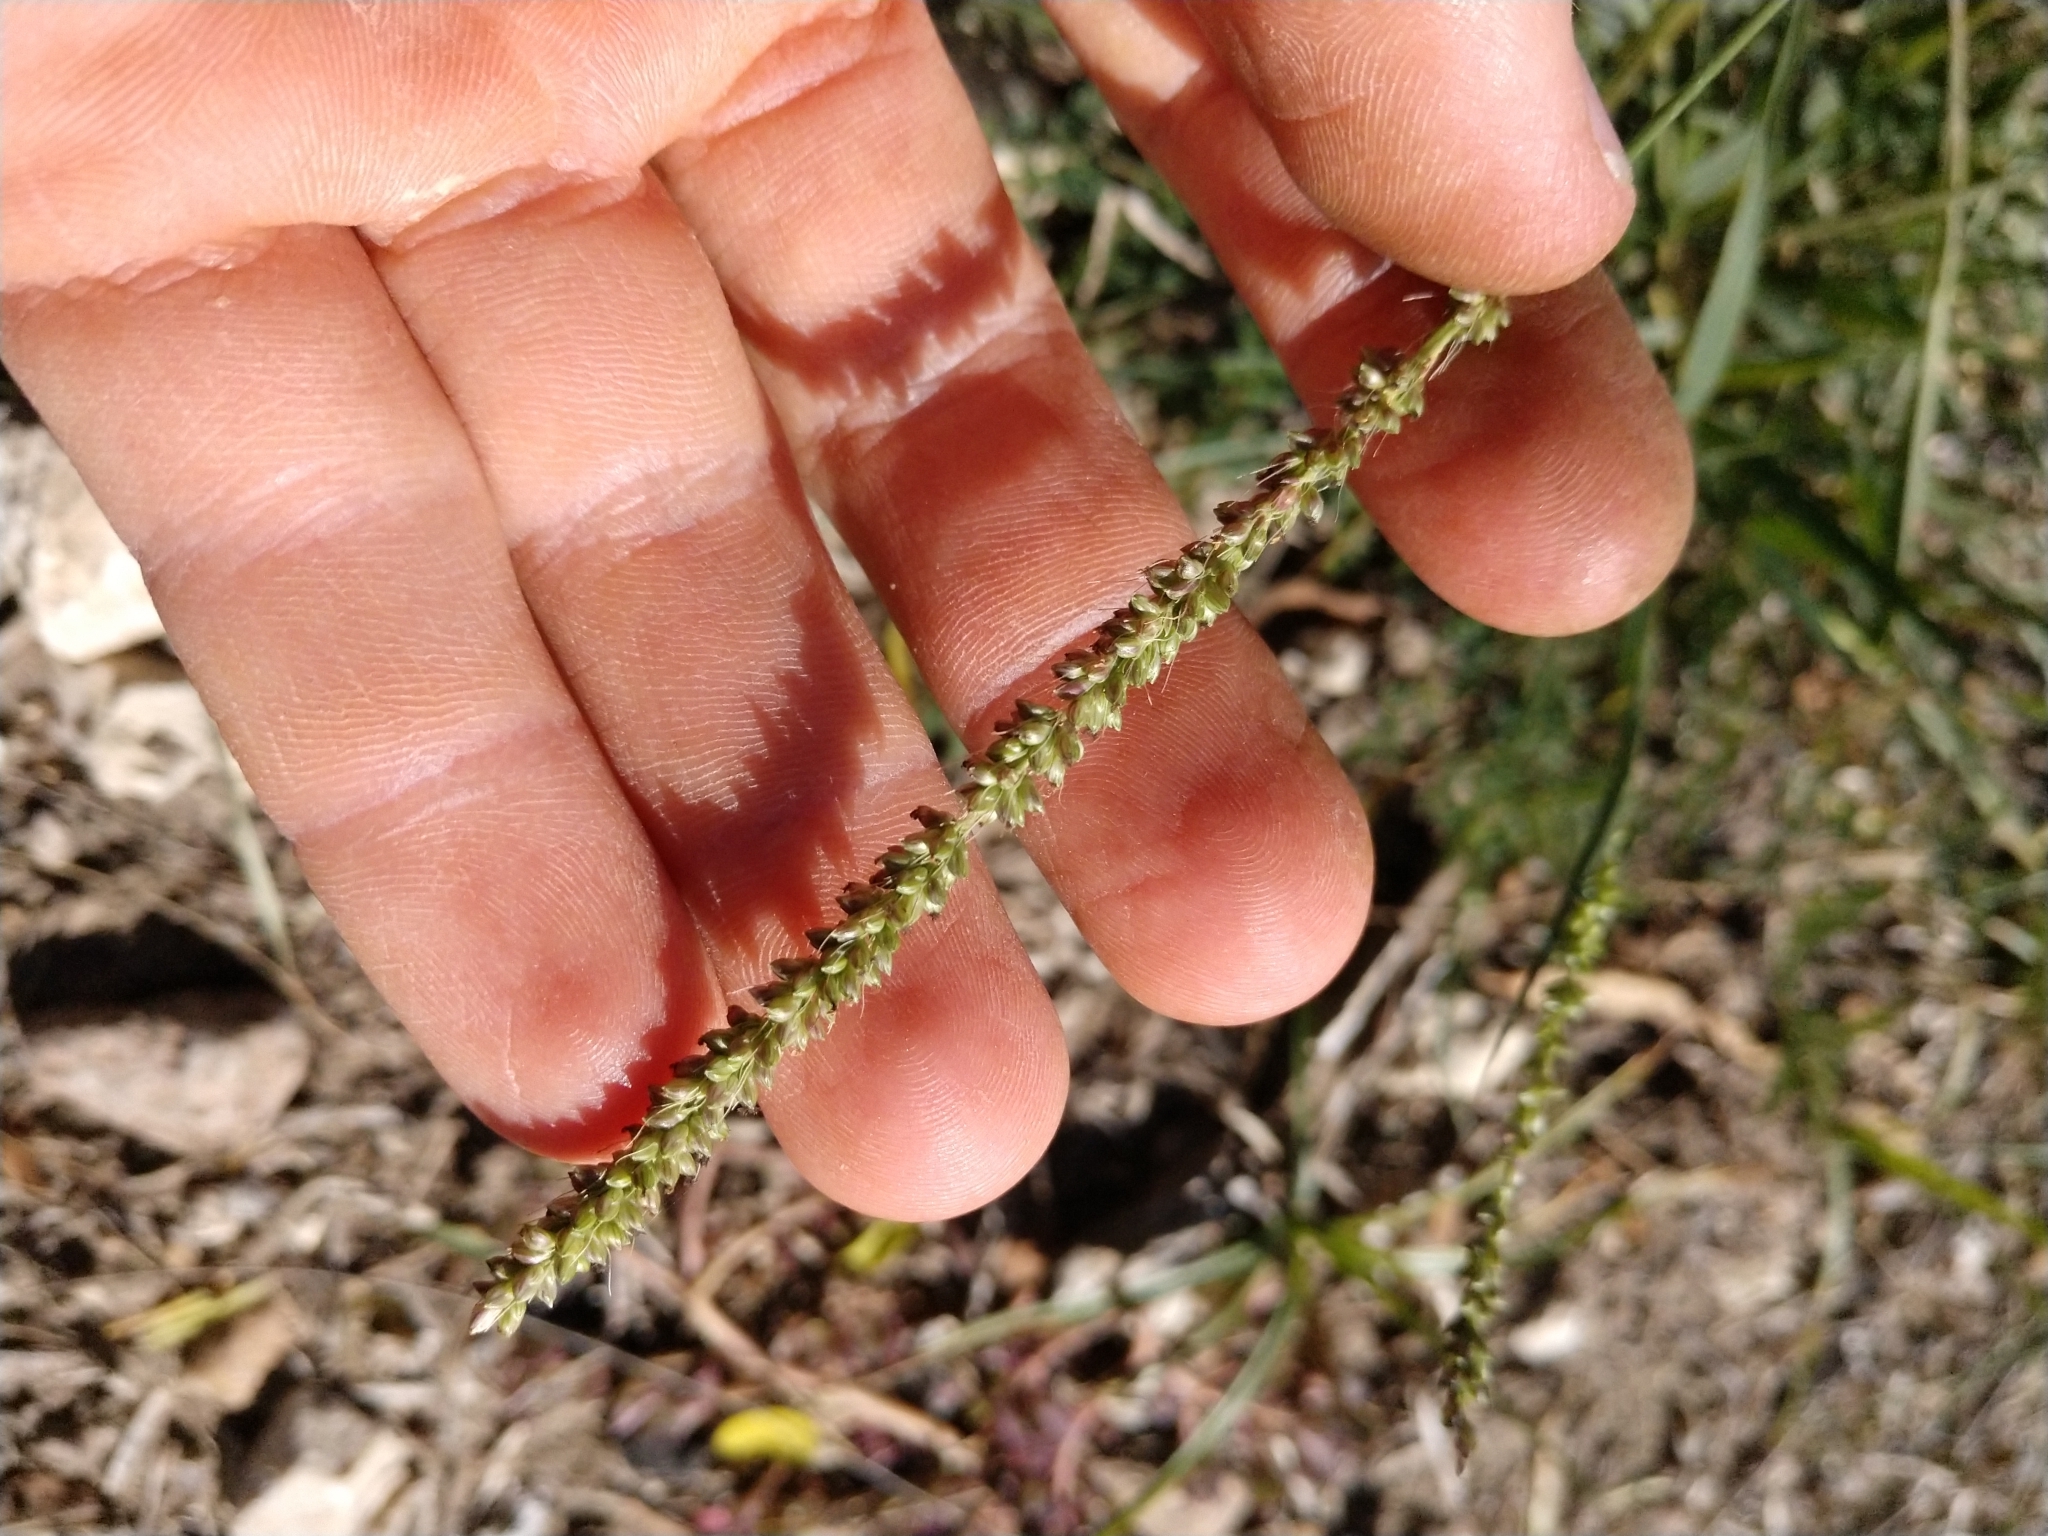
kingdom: Plantae
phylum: Tracheophyta
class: Liliopsida
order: Poales
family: Poaceae
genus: Setaria
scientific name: Setaria leucopila
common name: Plains bristle grass
